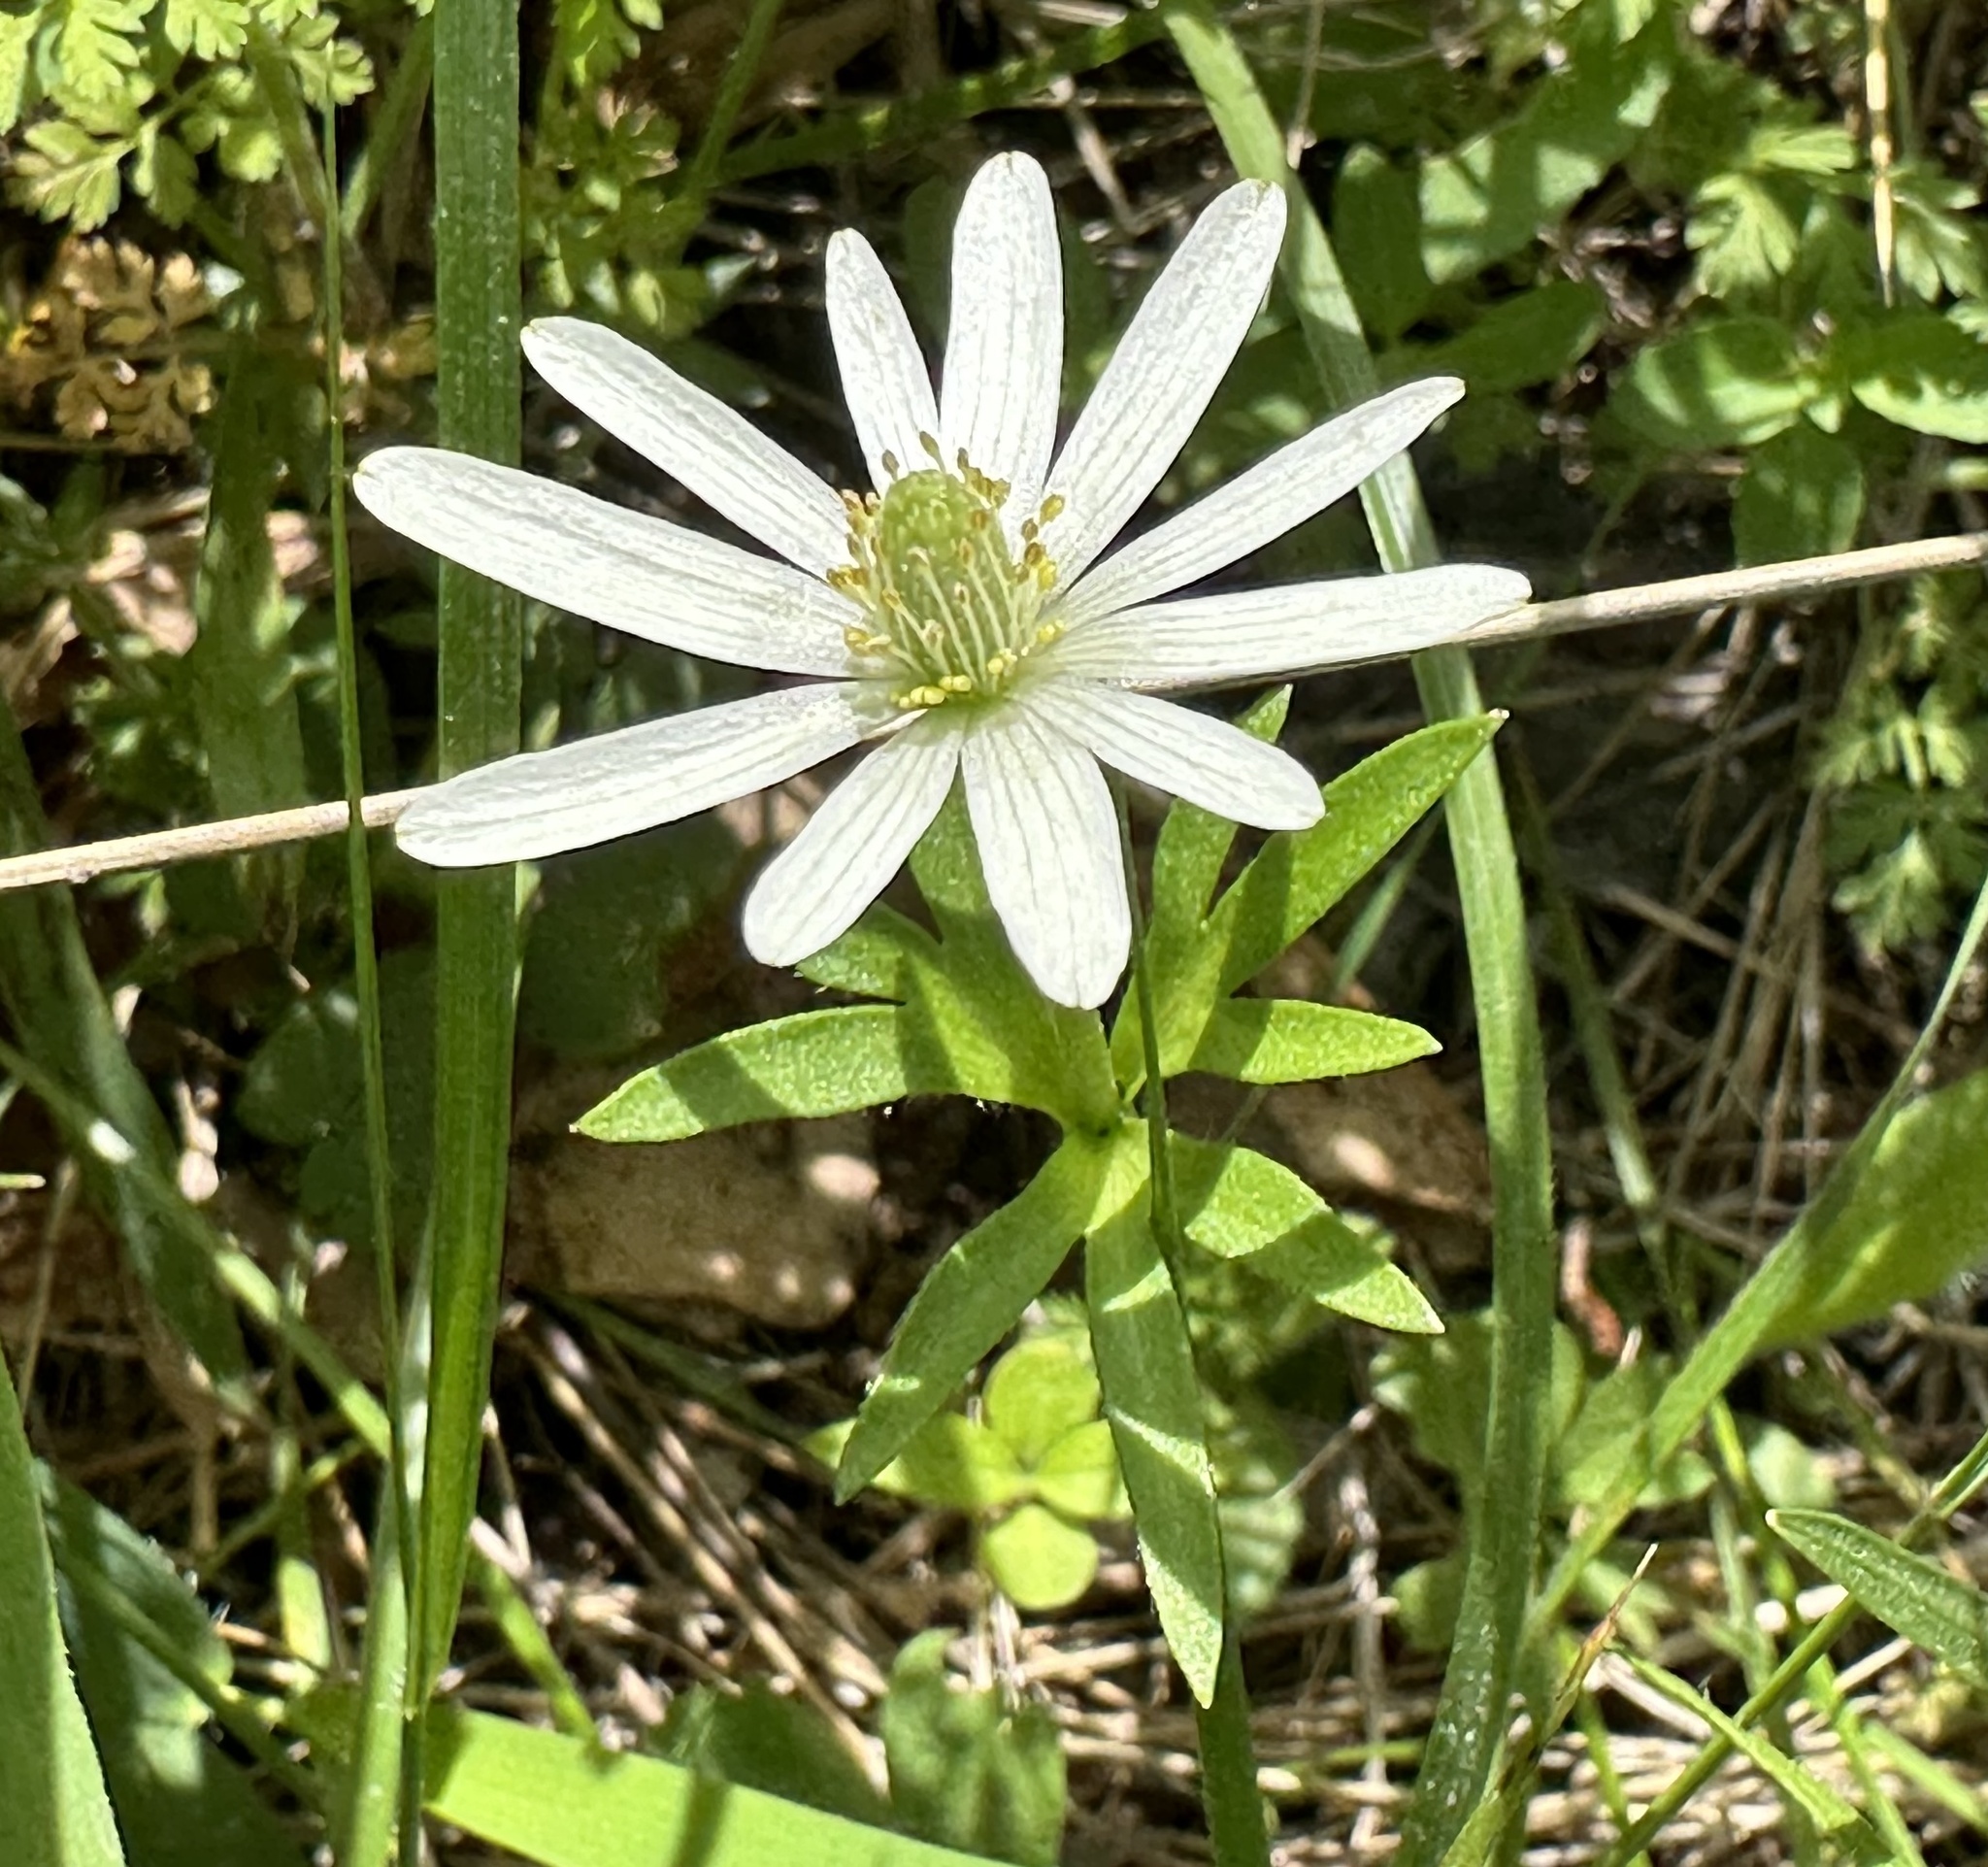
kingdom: Plantae
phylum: Tracheophyta
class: Magnoliopsida
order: Ranunculales
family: Ranunculaceae
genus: Anemone
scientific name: Anemone berlandieri
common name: Ten-petal anemone
